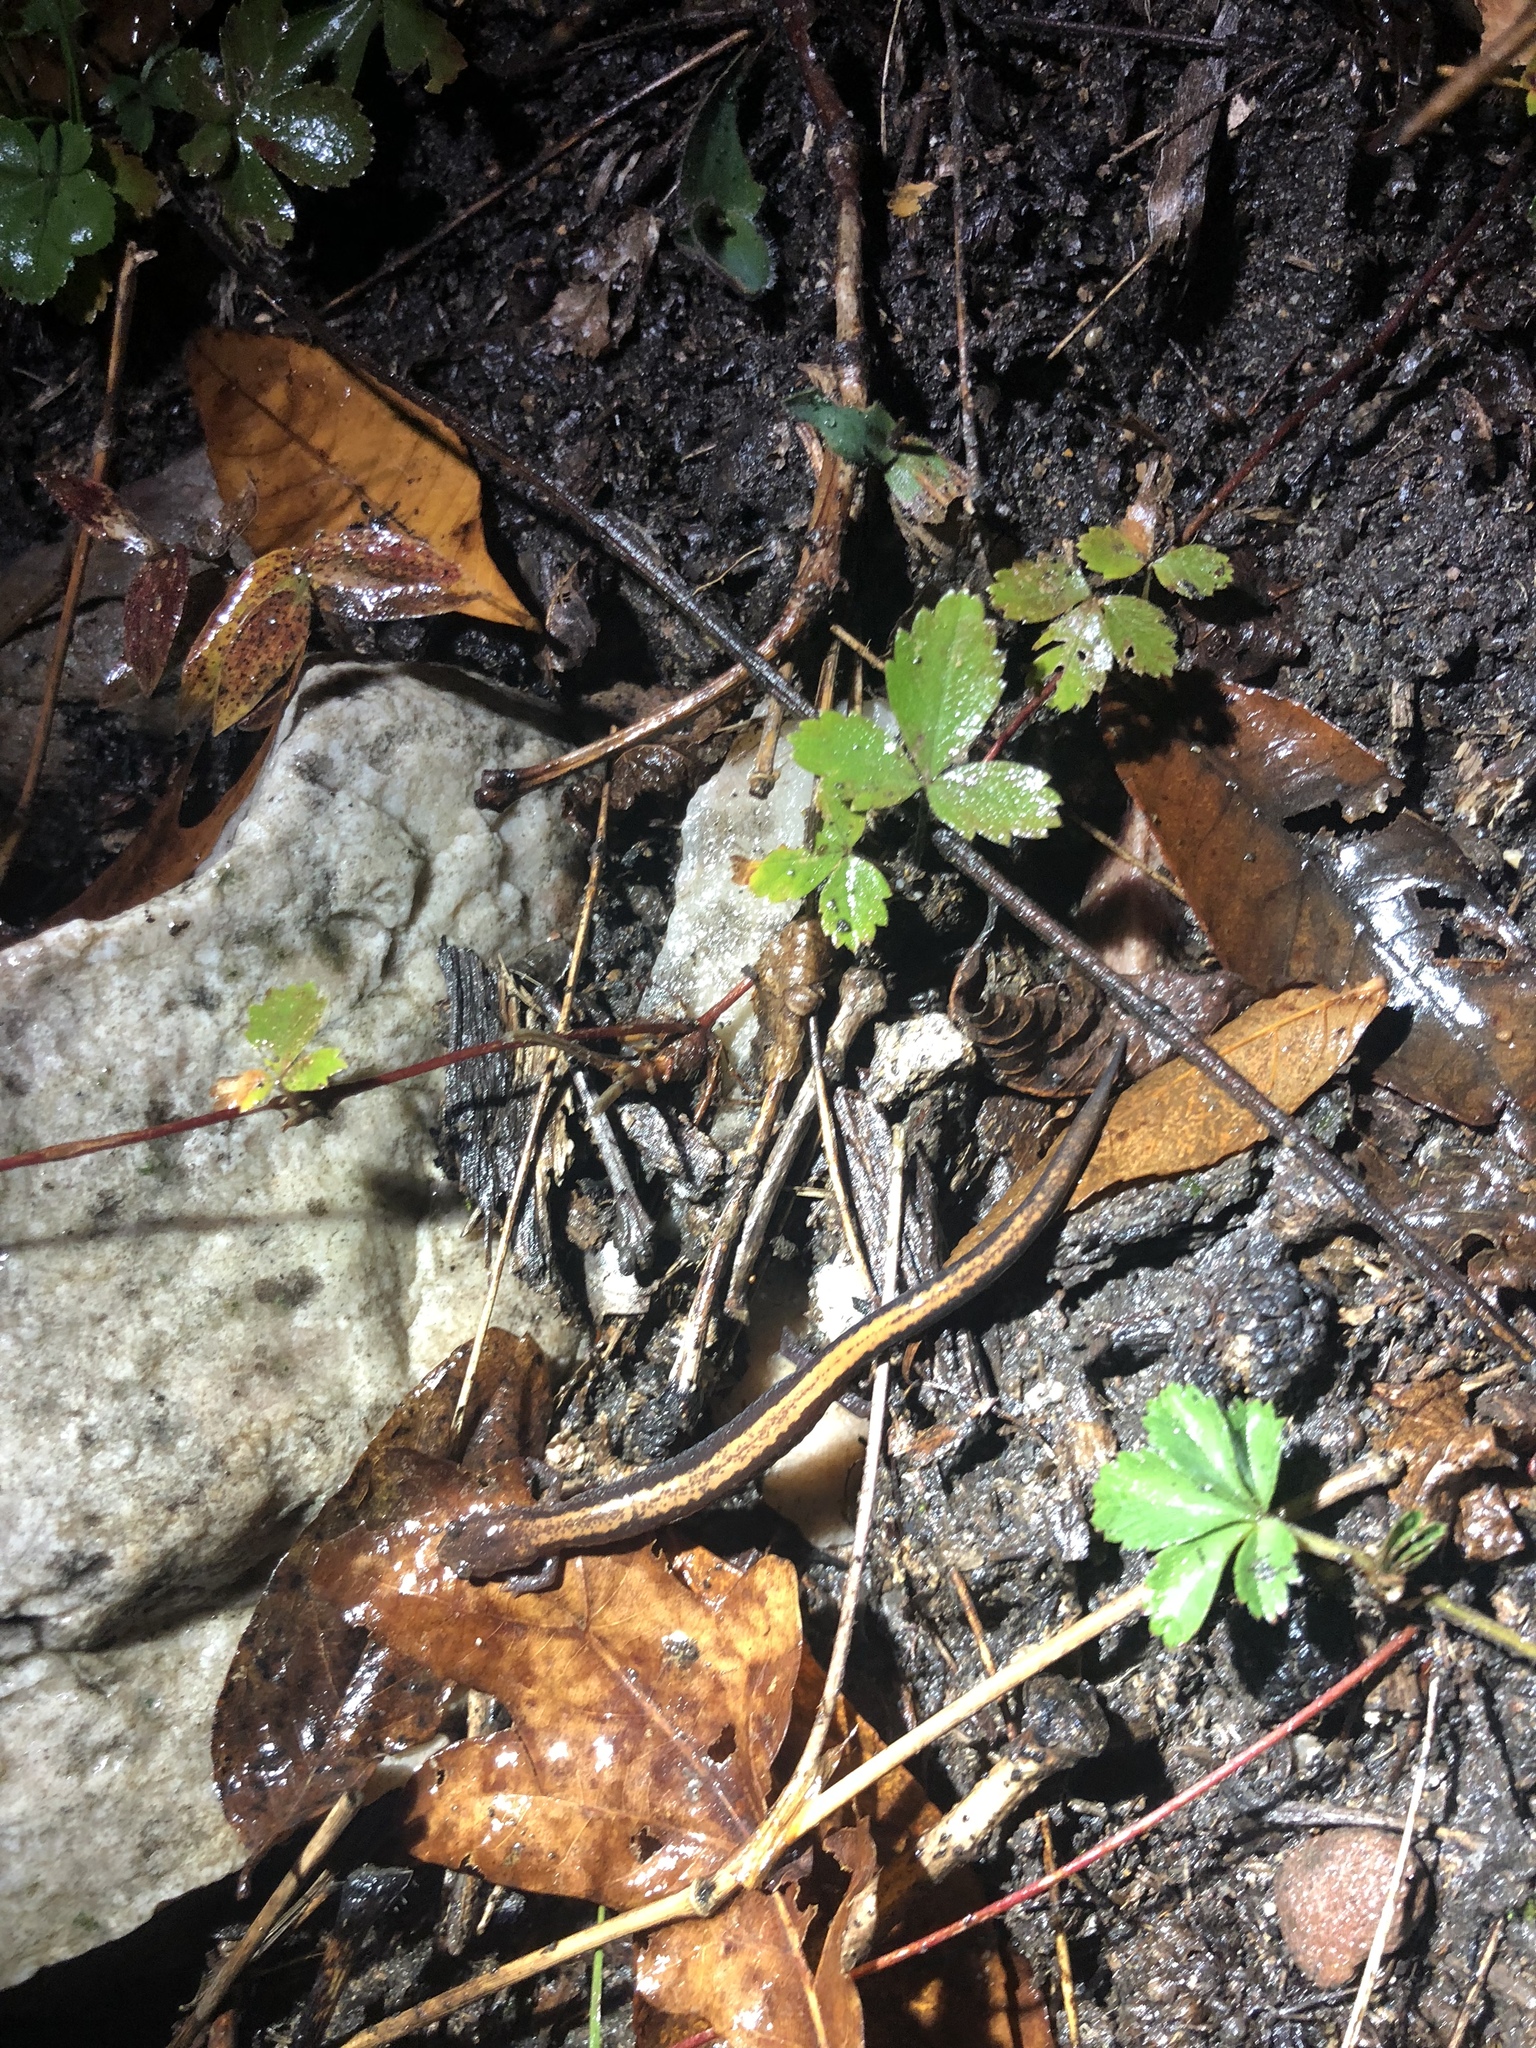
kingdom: Animalia
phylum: Chordata
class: Amphibia
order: Caudata
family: Plethodontidae
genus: Plethodon
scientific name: Plethodon cinereus
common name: Redback salamander
